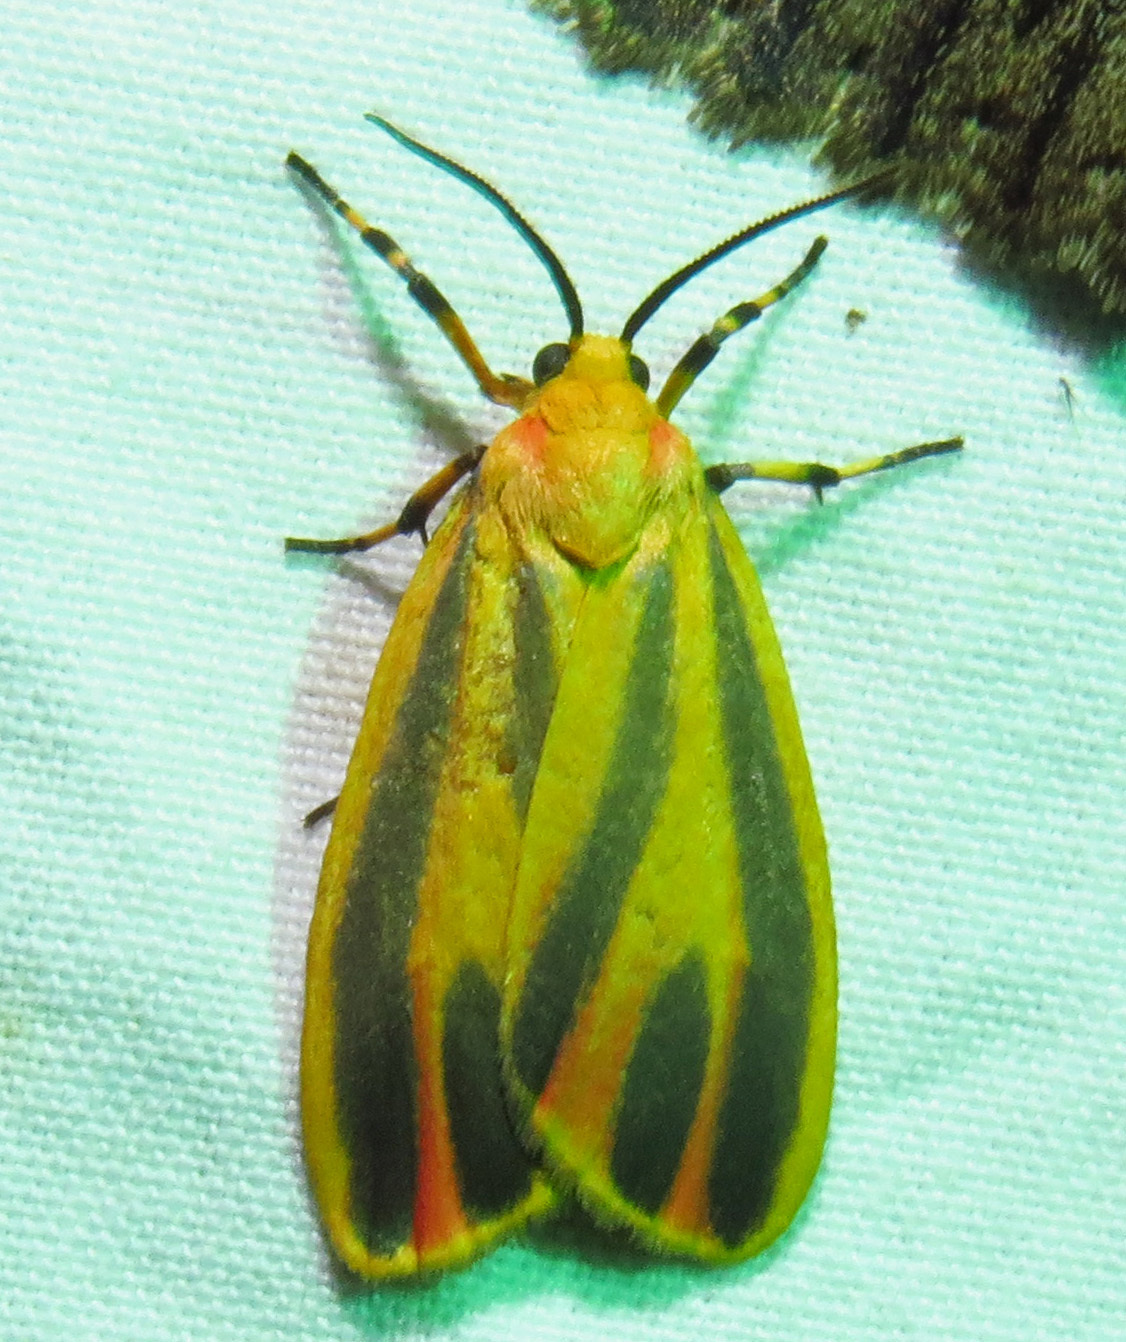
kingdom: Animalia
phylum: Arthropoda
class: Insecta
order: Lepidoptera
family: Erebidae
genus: Hypoprepia
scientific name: Hypoprepia fucosa
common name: Painted lichen moth
